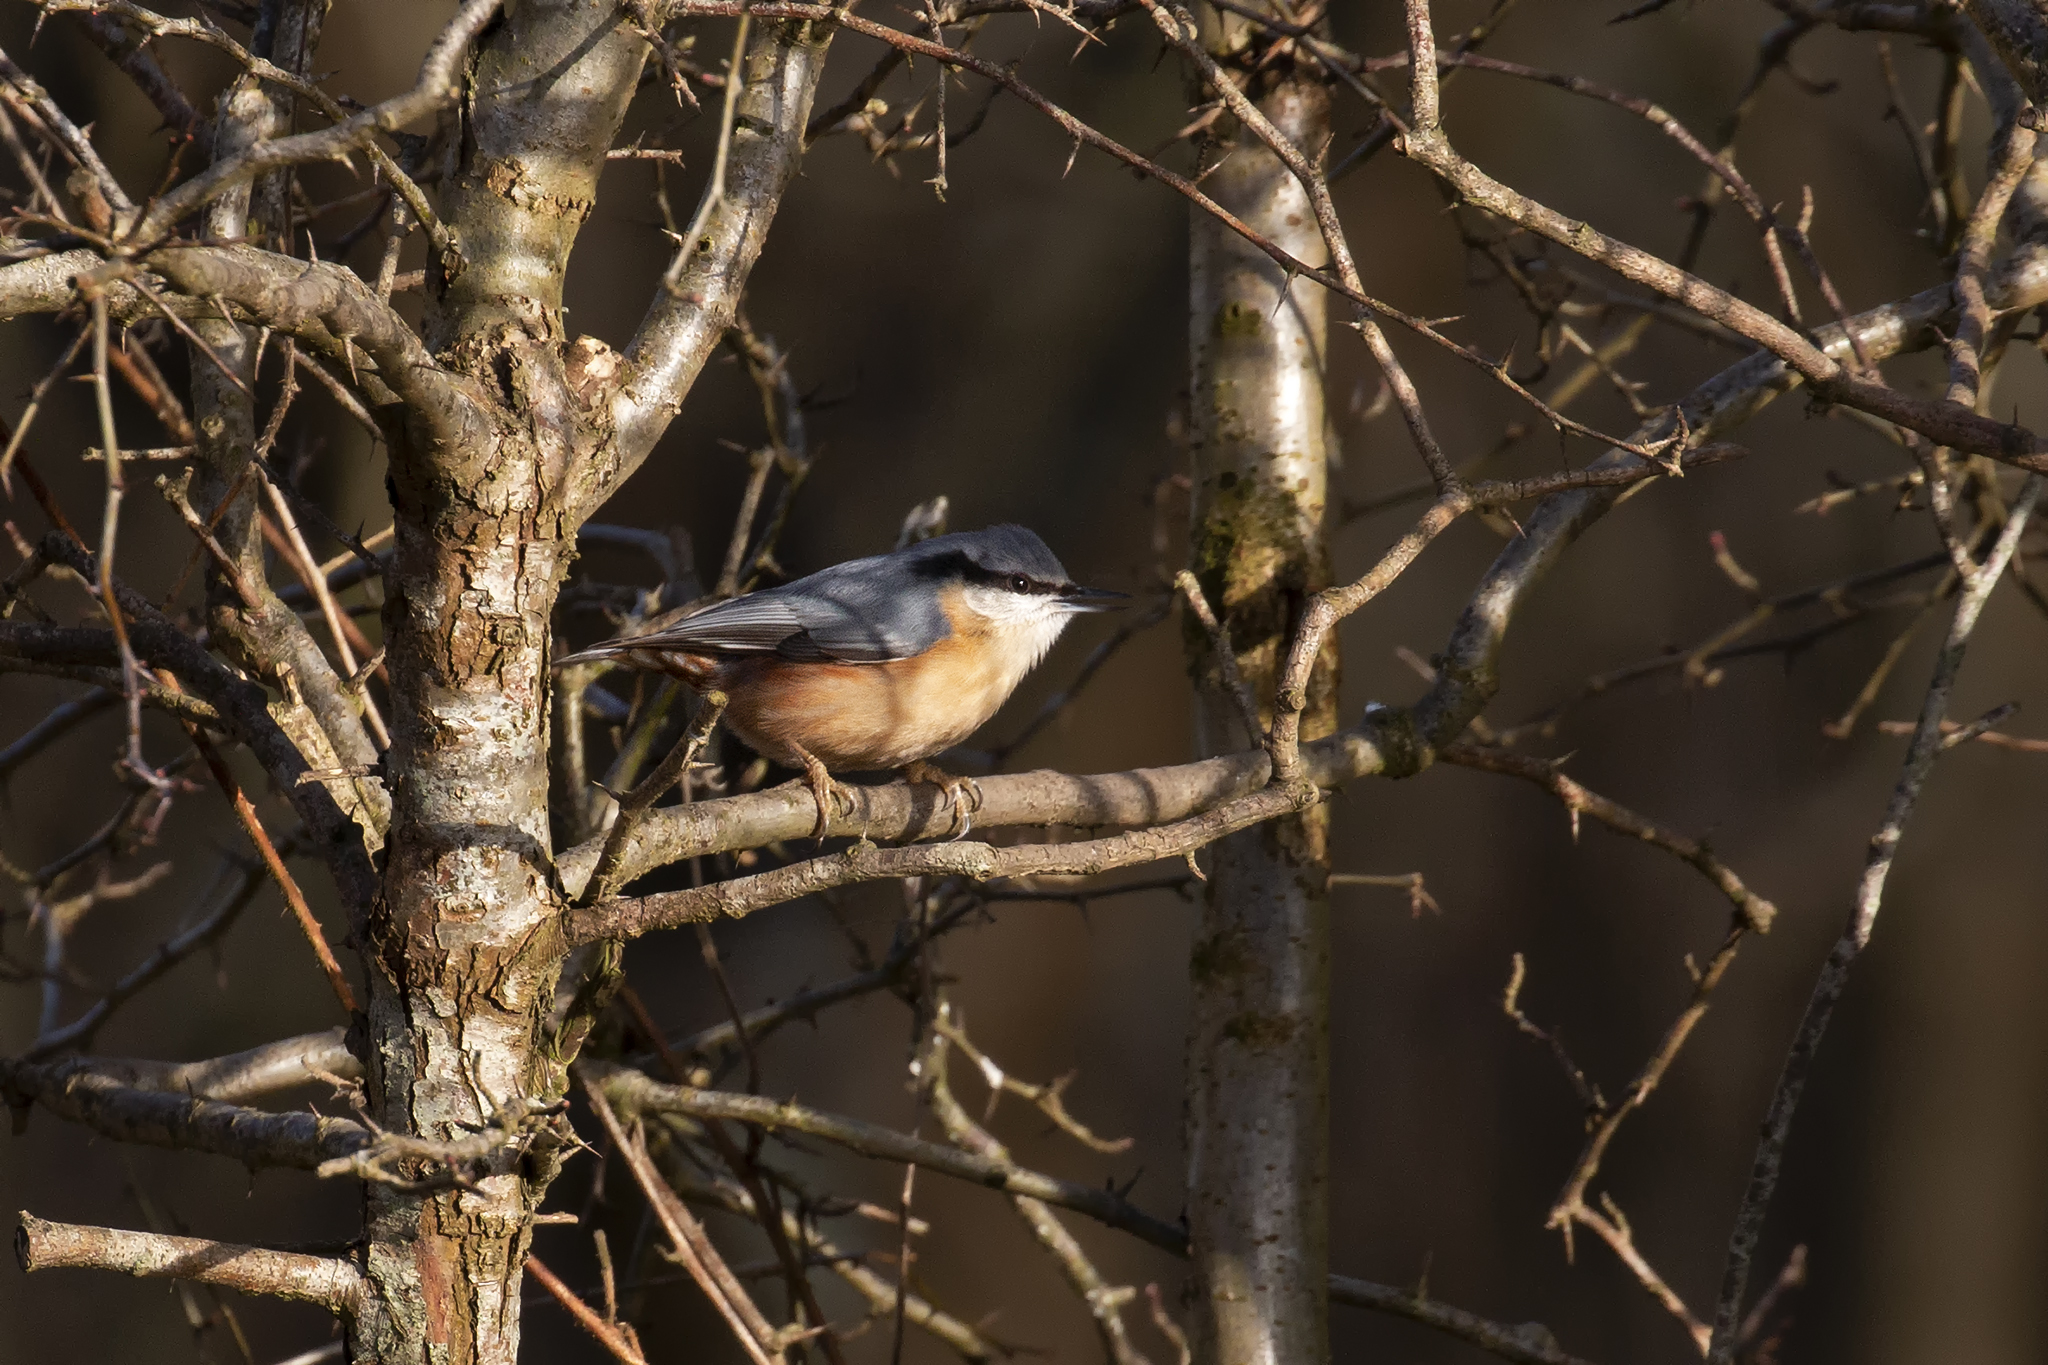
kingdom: Animalia
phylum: Chordata
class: Aves
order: Passeriformes
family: Sittidae
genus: Sitta
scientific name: Sitta europaea
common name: Eurasian nuthatch
